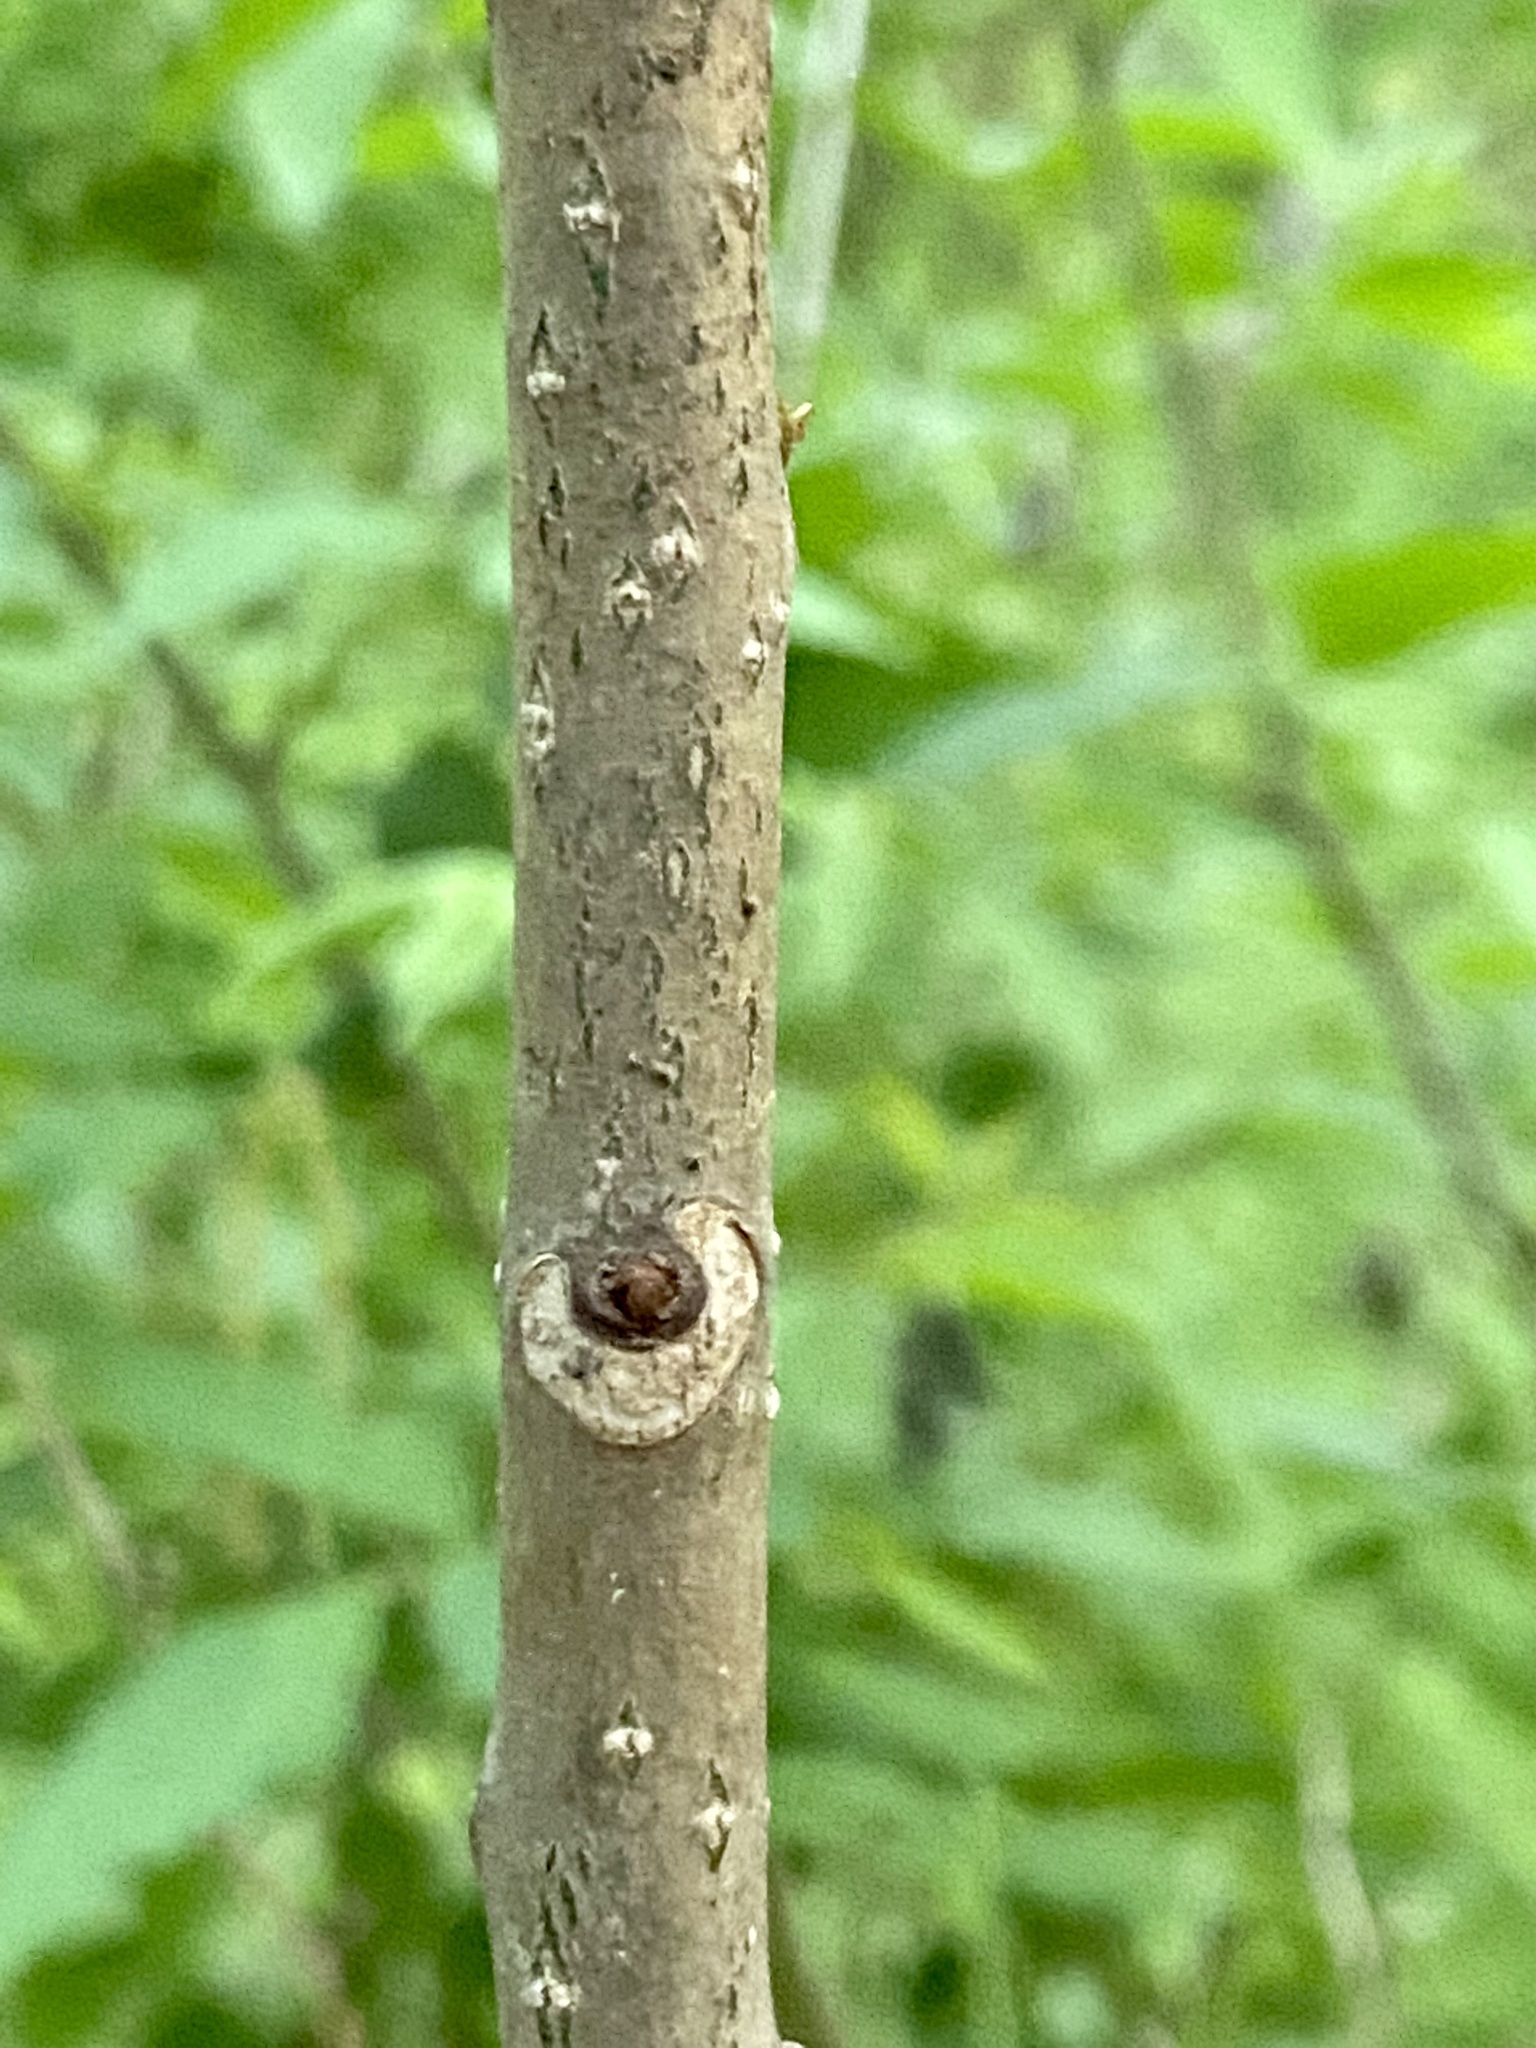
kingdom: Plantae
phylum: Tracheophyta
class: Magnoliopsida
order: Sapindales
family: Rutaceae
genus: Phellodendron
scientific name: Phellodendron amurense
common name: Amur corktree
